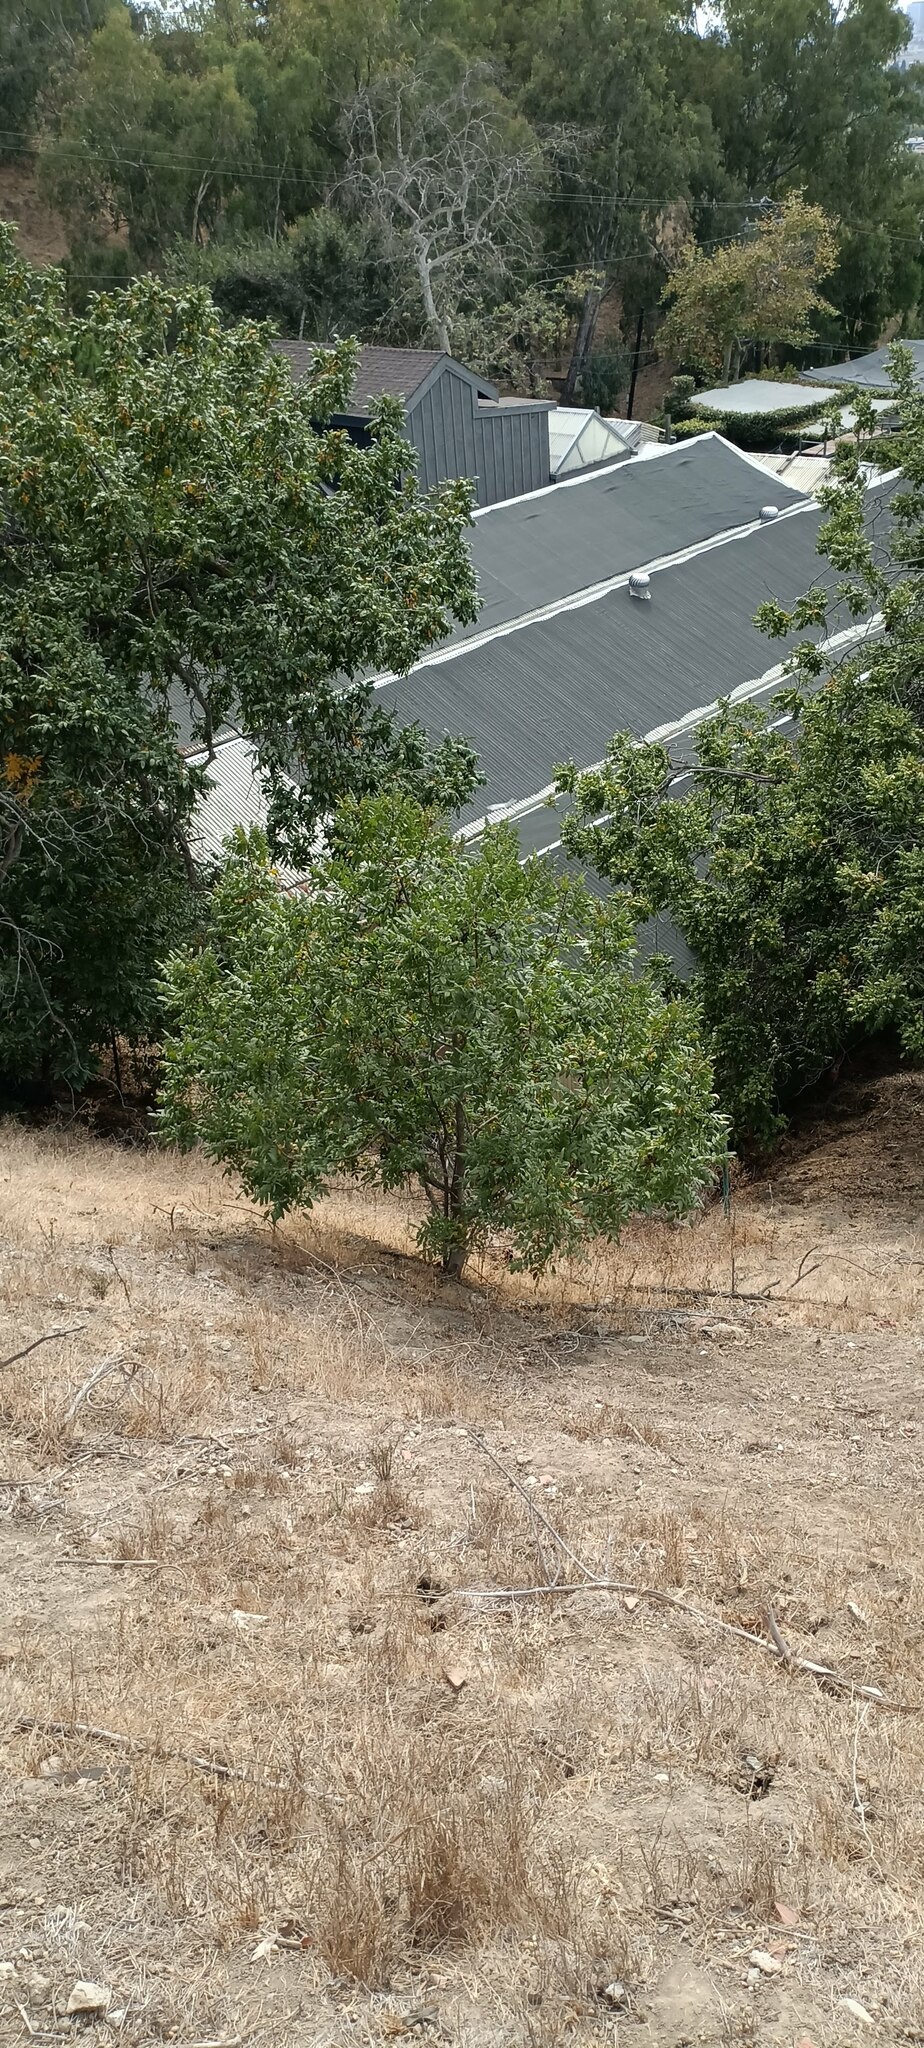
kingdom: Plantae
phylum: Tracheophyta
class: Magnoliopsida
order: Fagales
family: Juglandaceae
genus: Juglans
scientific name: Juglans californica
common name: Southern california black walnut
